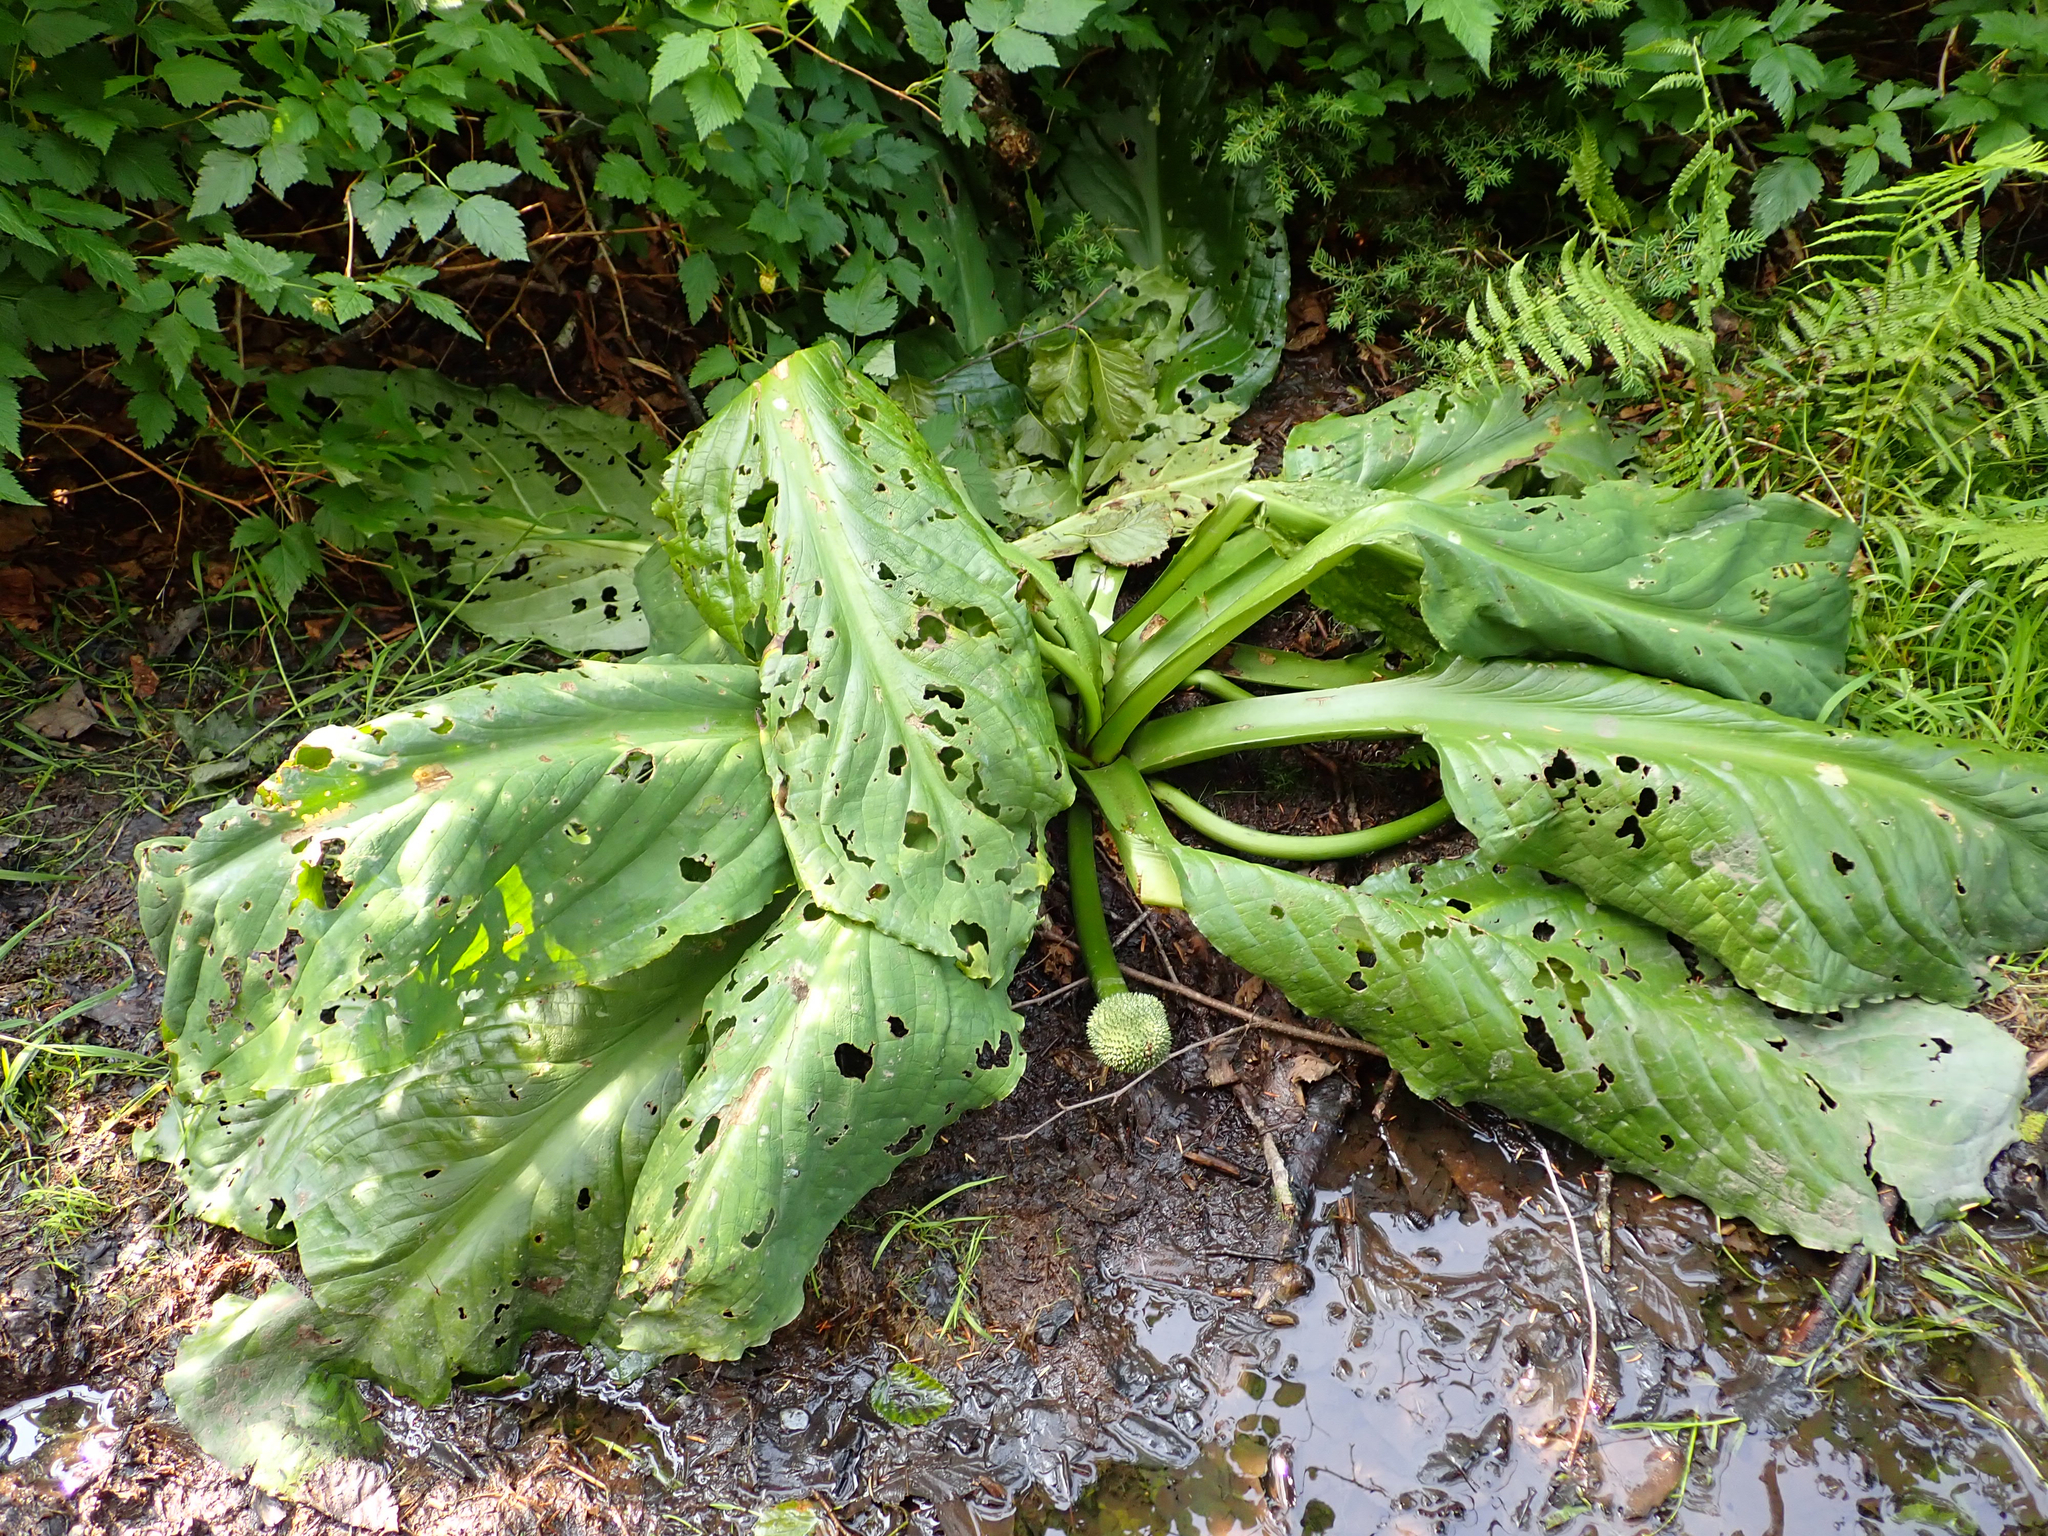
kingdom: Plantae
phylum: Tracheophyta
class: Liliopsida
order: Alismatales
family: Araceae
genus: Lysichiton
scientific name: Lysichiton americanus
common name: American skunk cabbage
